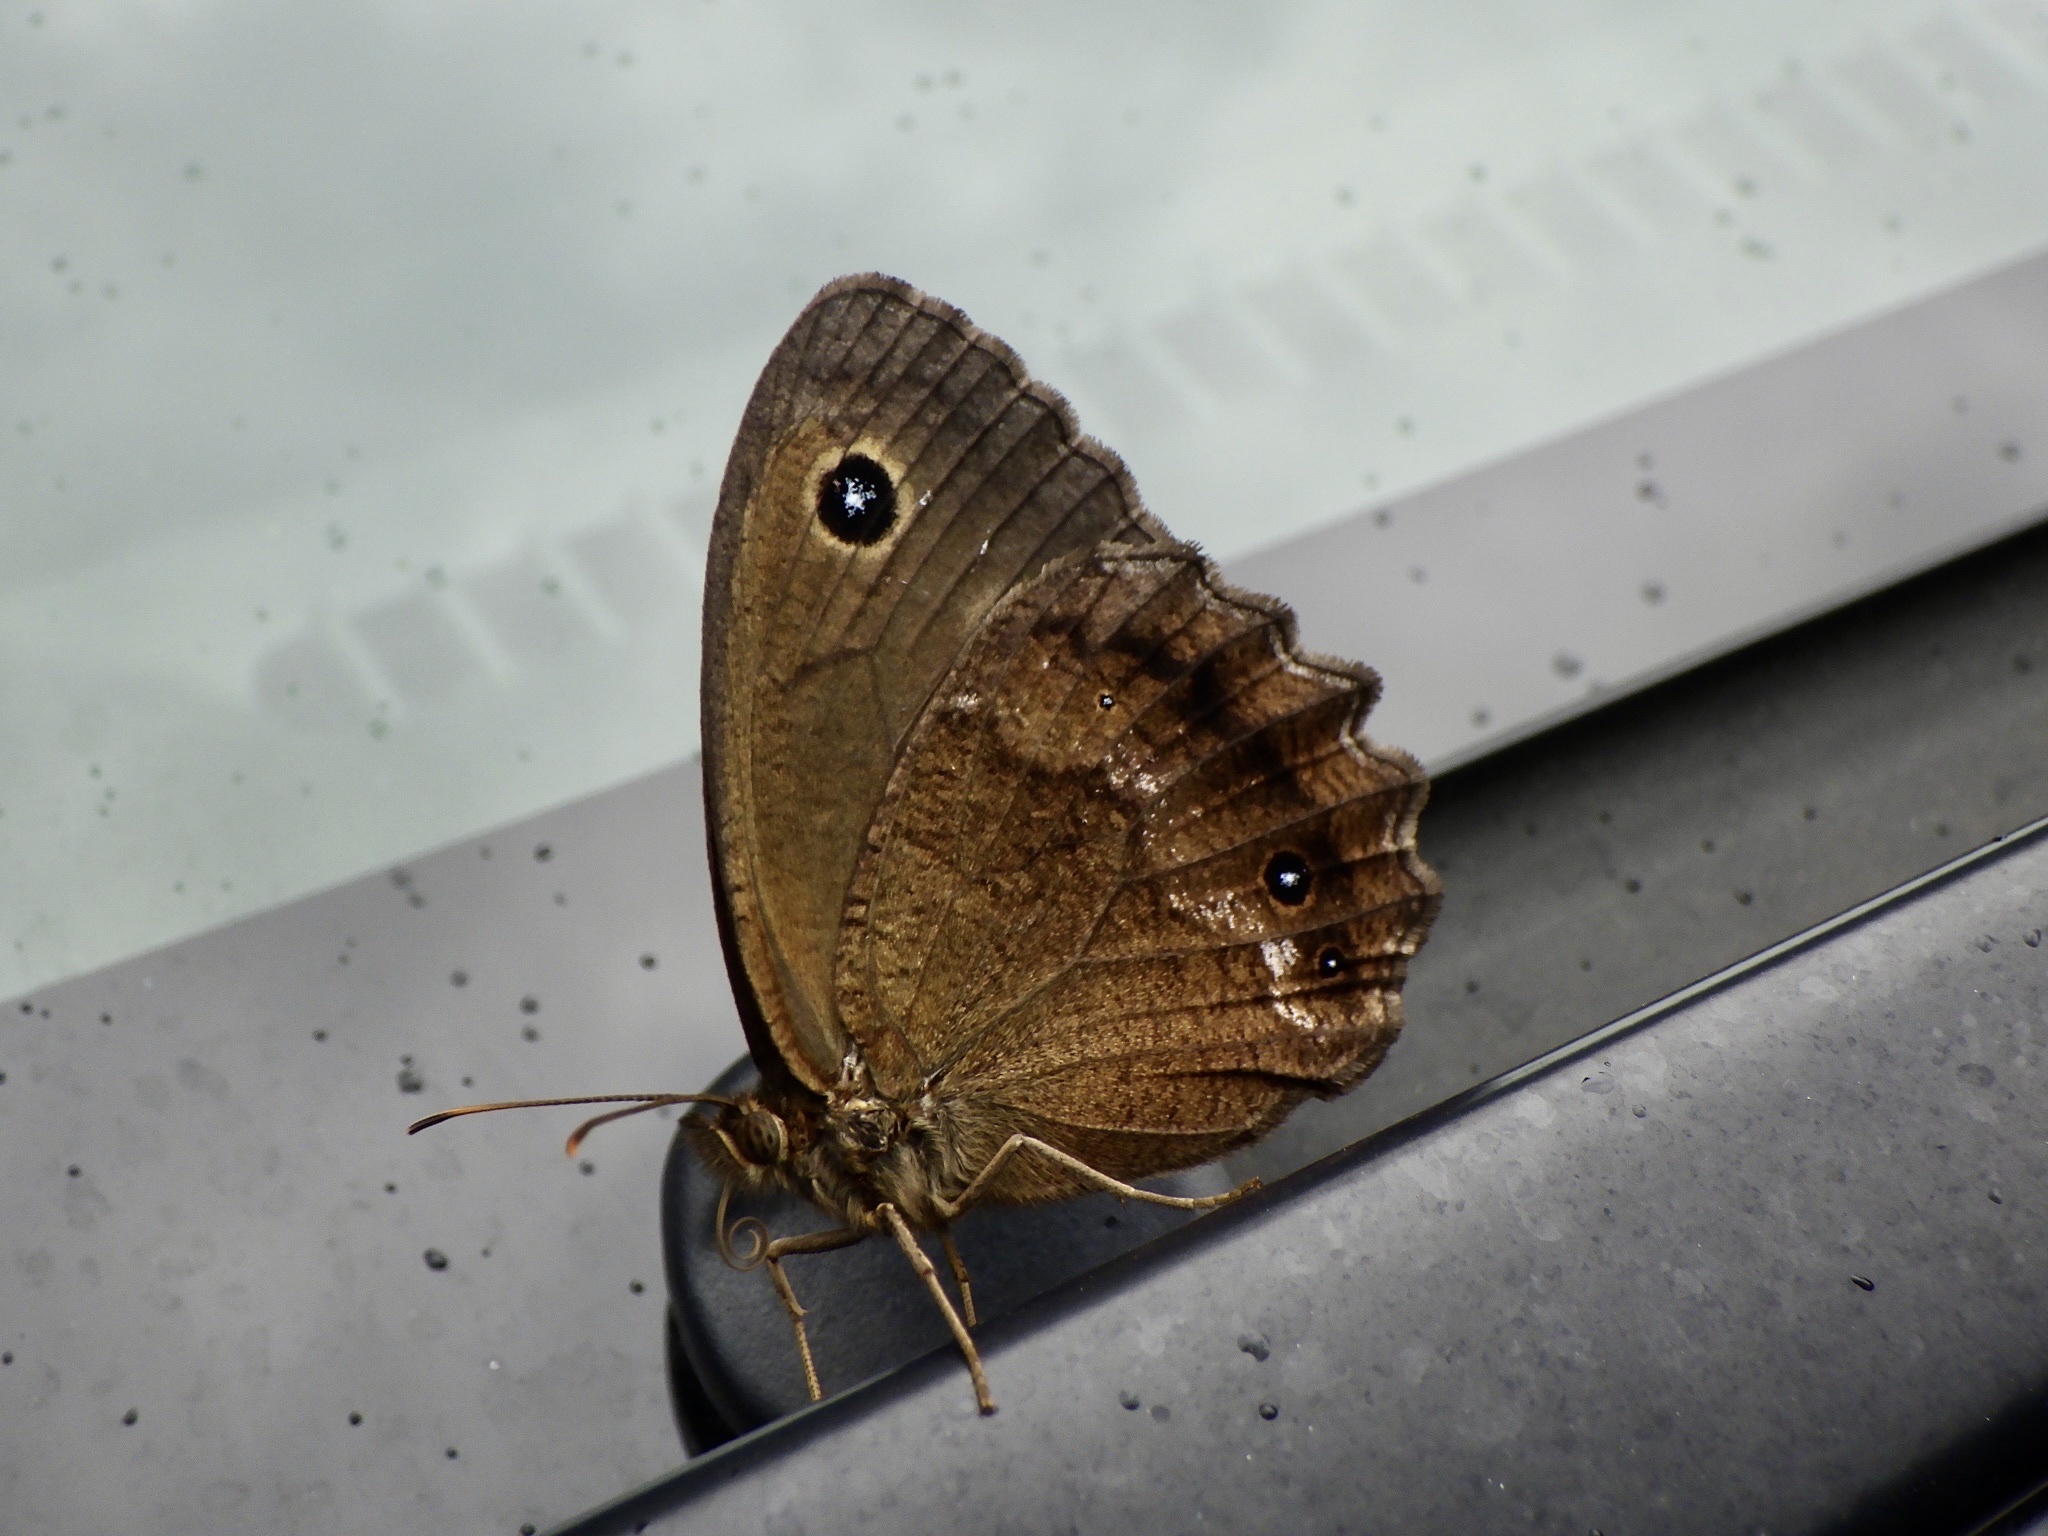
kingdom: Animalia
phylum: Arthropoda
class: Insecta
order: Lepidoptera
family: Nymphalidae
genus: Minois
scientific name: Minois dryas
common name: Dryad
